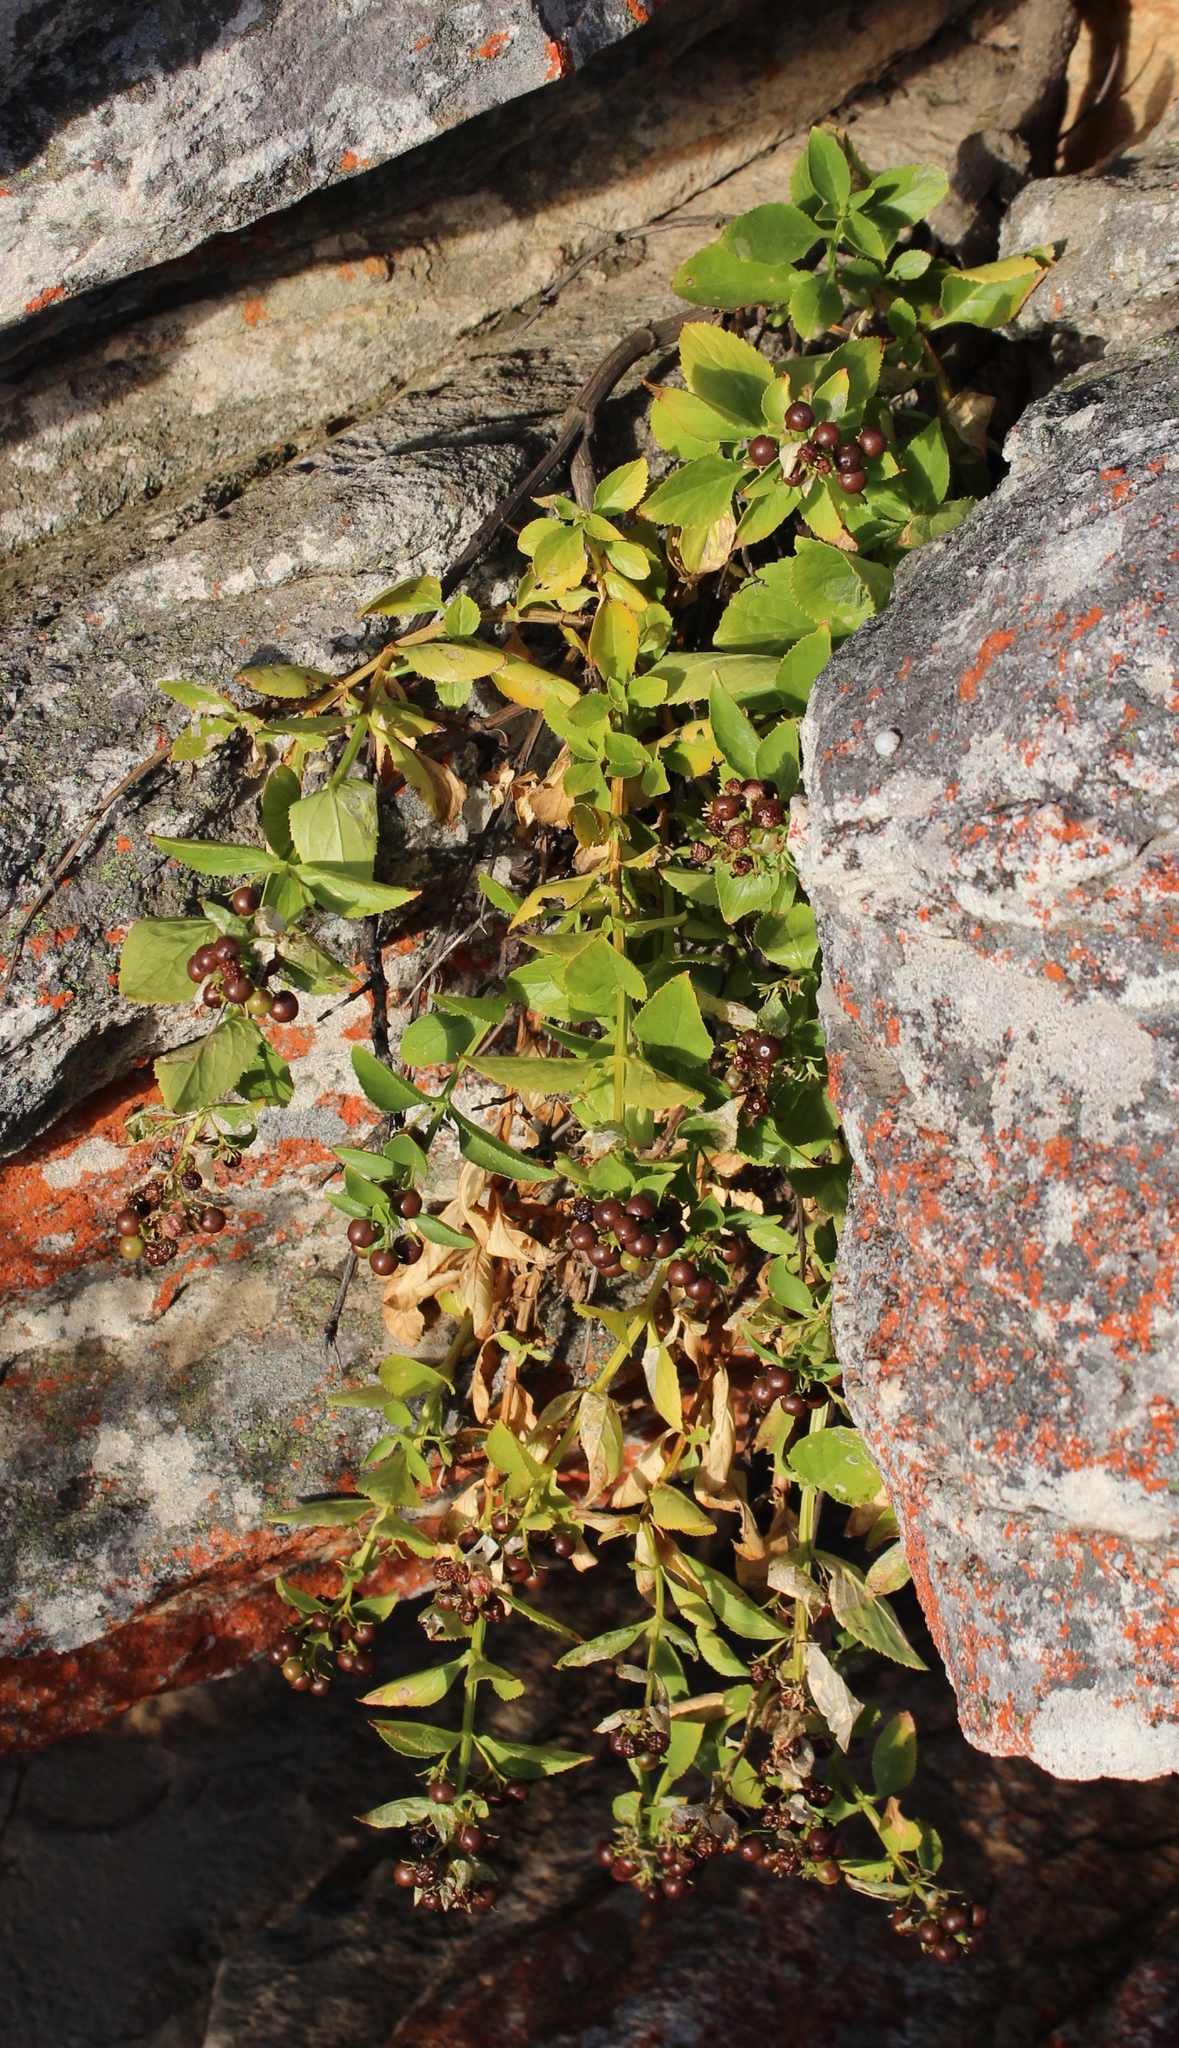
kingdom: Plantae
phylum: Tracheophyta
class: Magnoliopsida
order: Lamiales
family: Scrophulariaceae
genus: Teedia
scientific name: Teedia lucida
